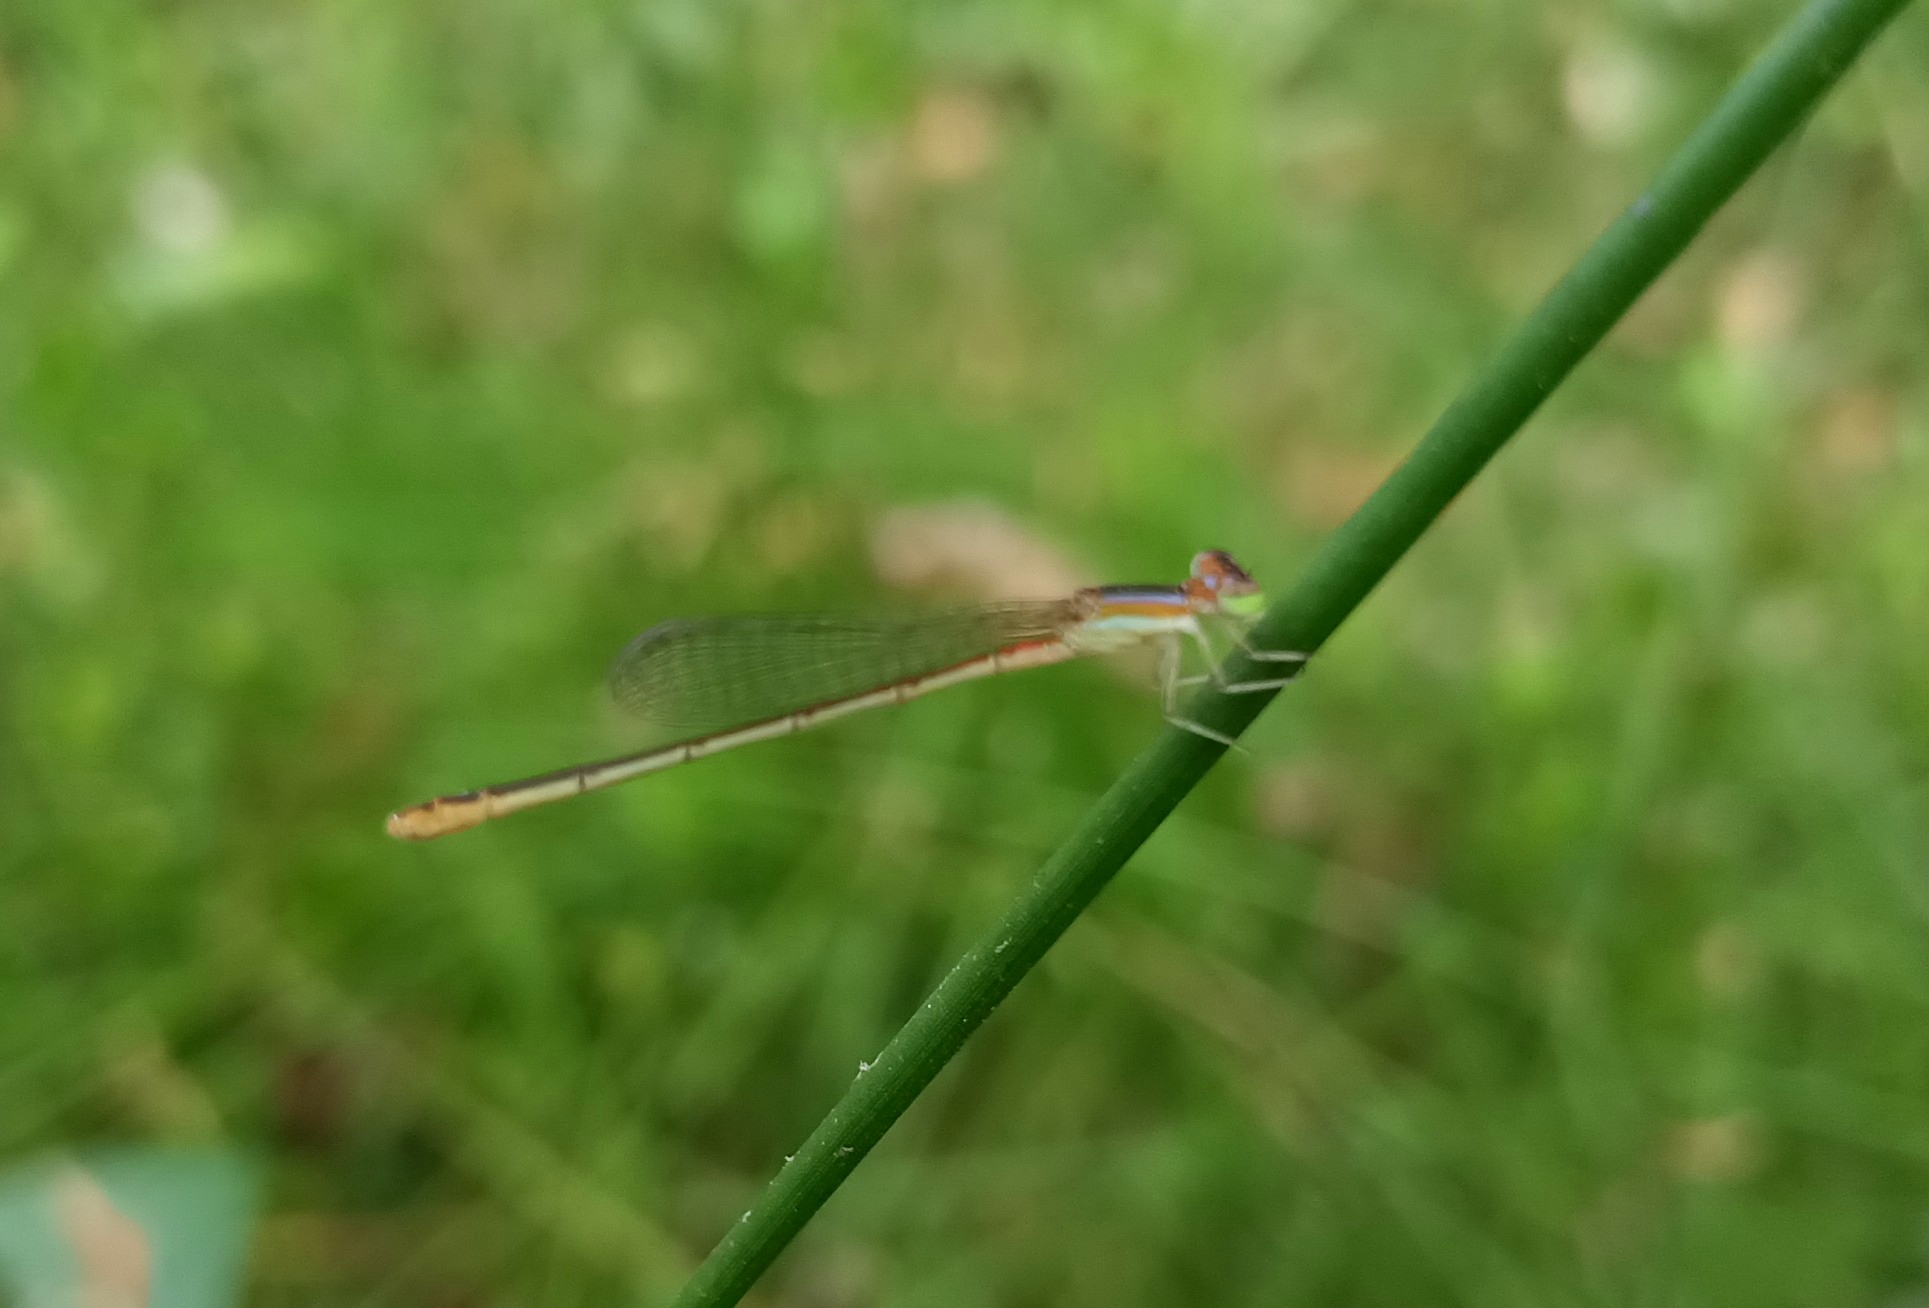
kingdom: Animalia
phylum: Arthropoda
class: Insecta
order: Odonata
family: Coenagrionidae
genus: Agriocnemis
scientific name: Agriocnemis pygmaea
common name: Pygmy wisp
